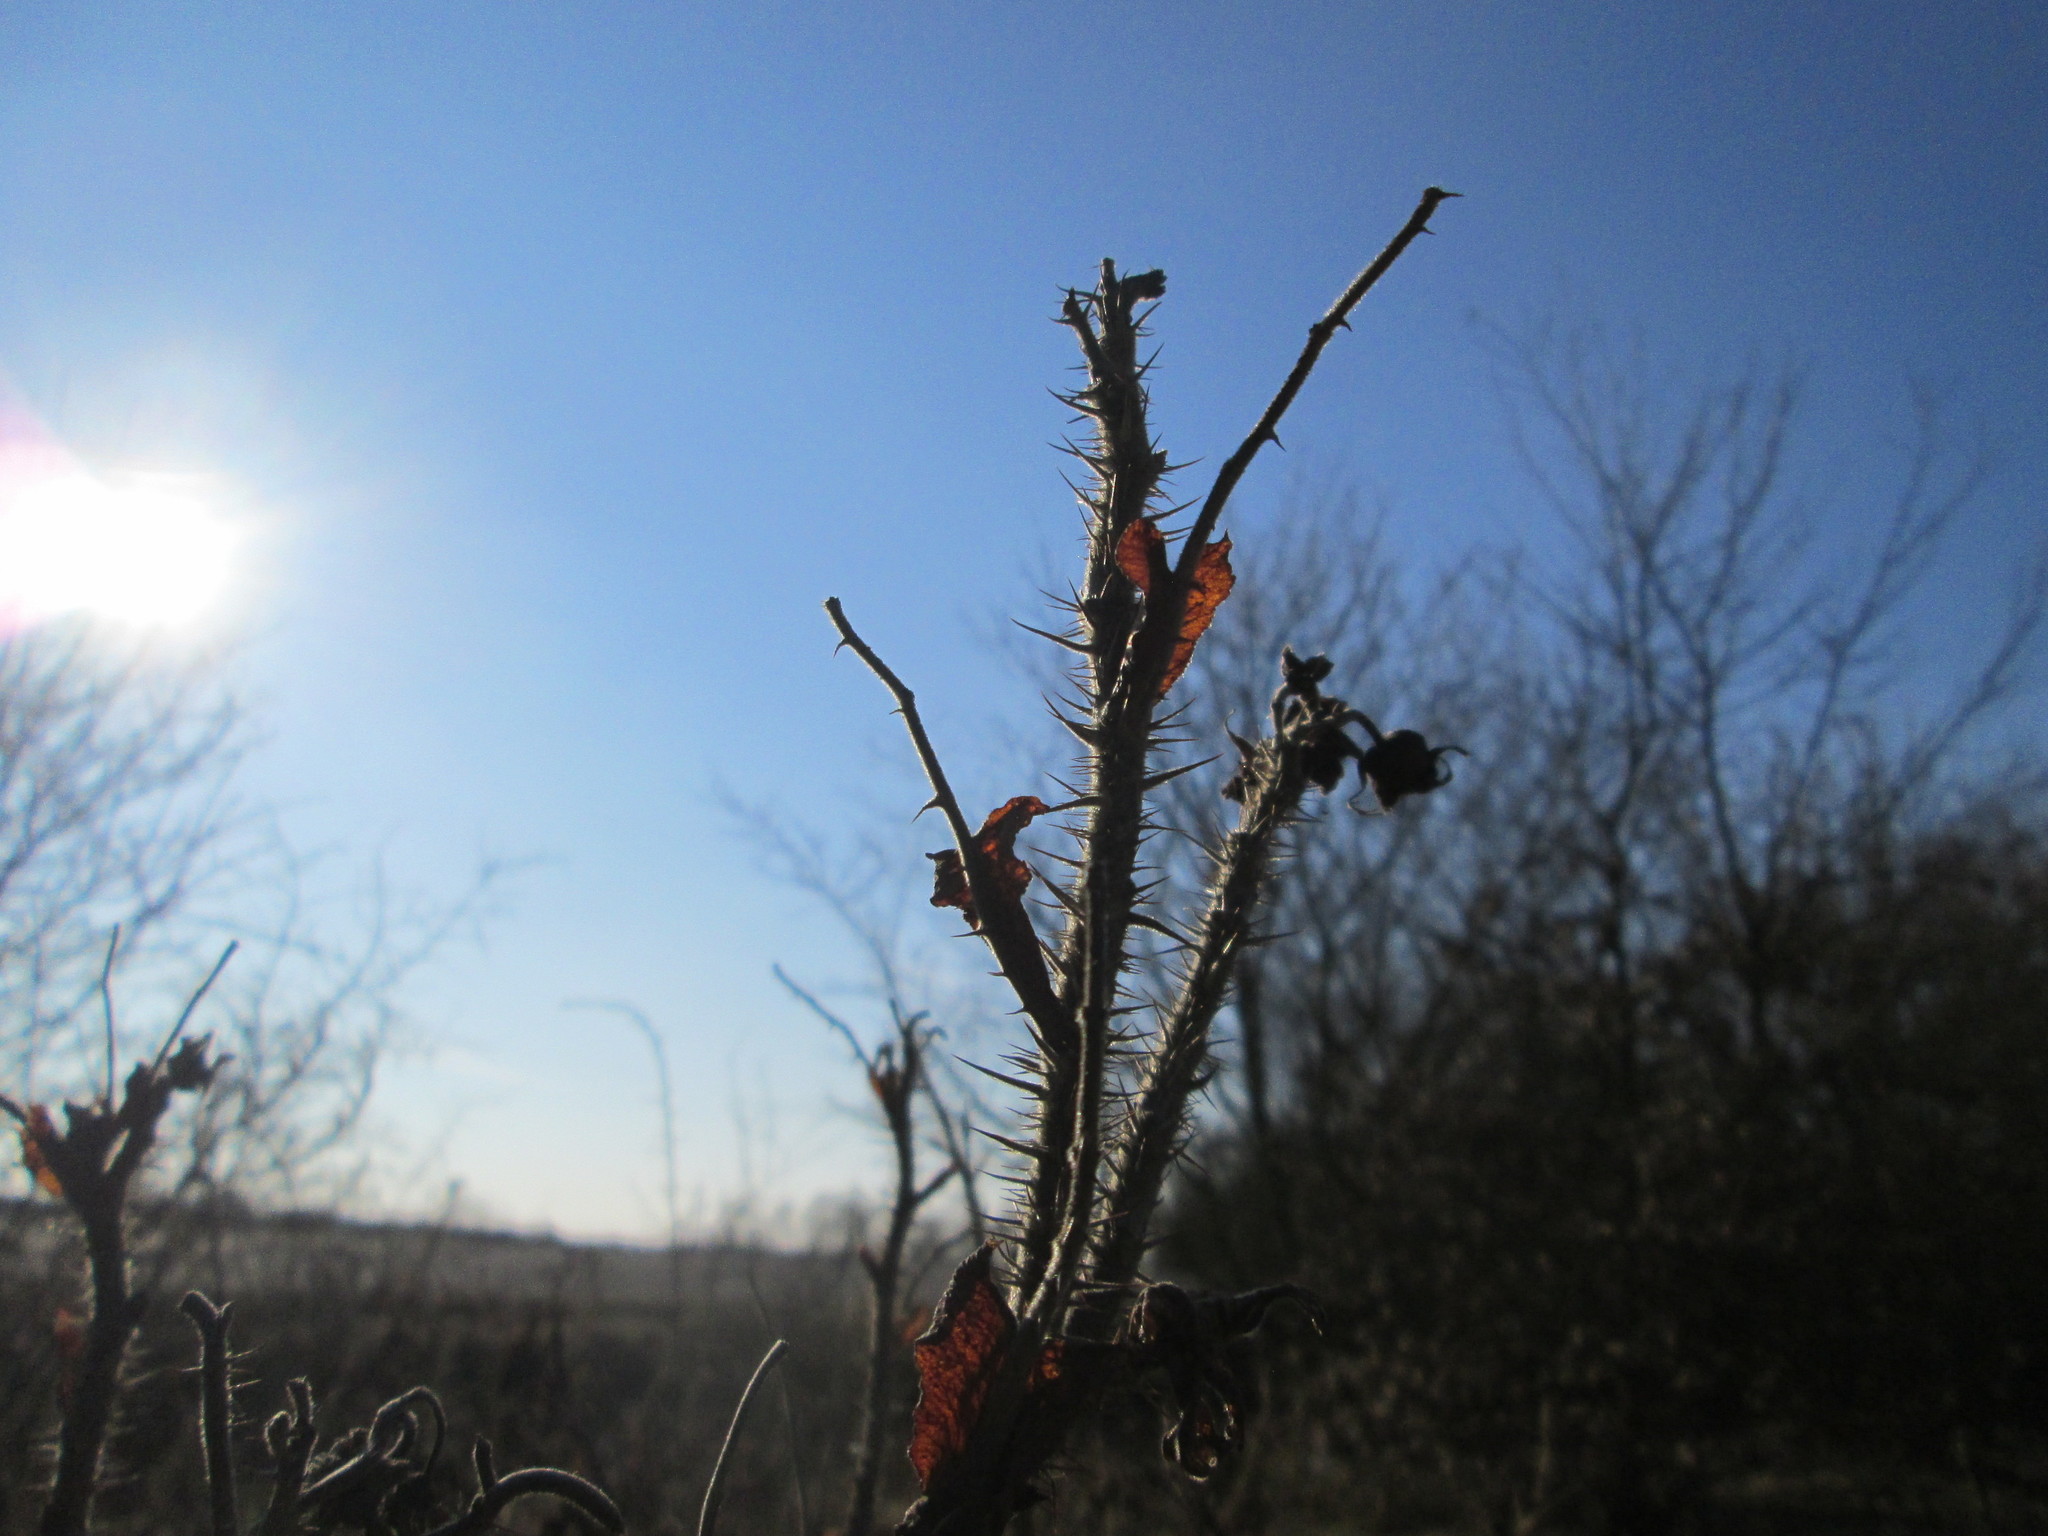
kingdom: Plantae
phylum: Tracheophyta
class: Magnoliopsida
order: Rosales
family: Rosaceae
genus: Rosa
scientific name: Rosa rugosa
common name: Japanese rose
